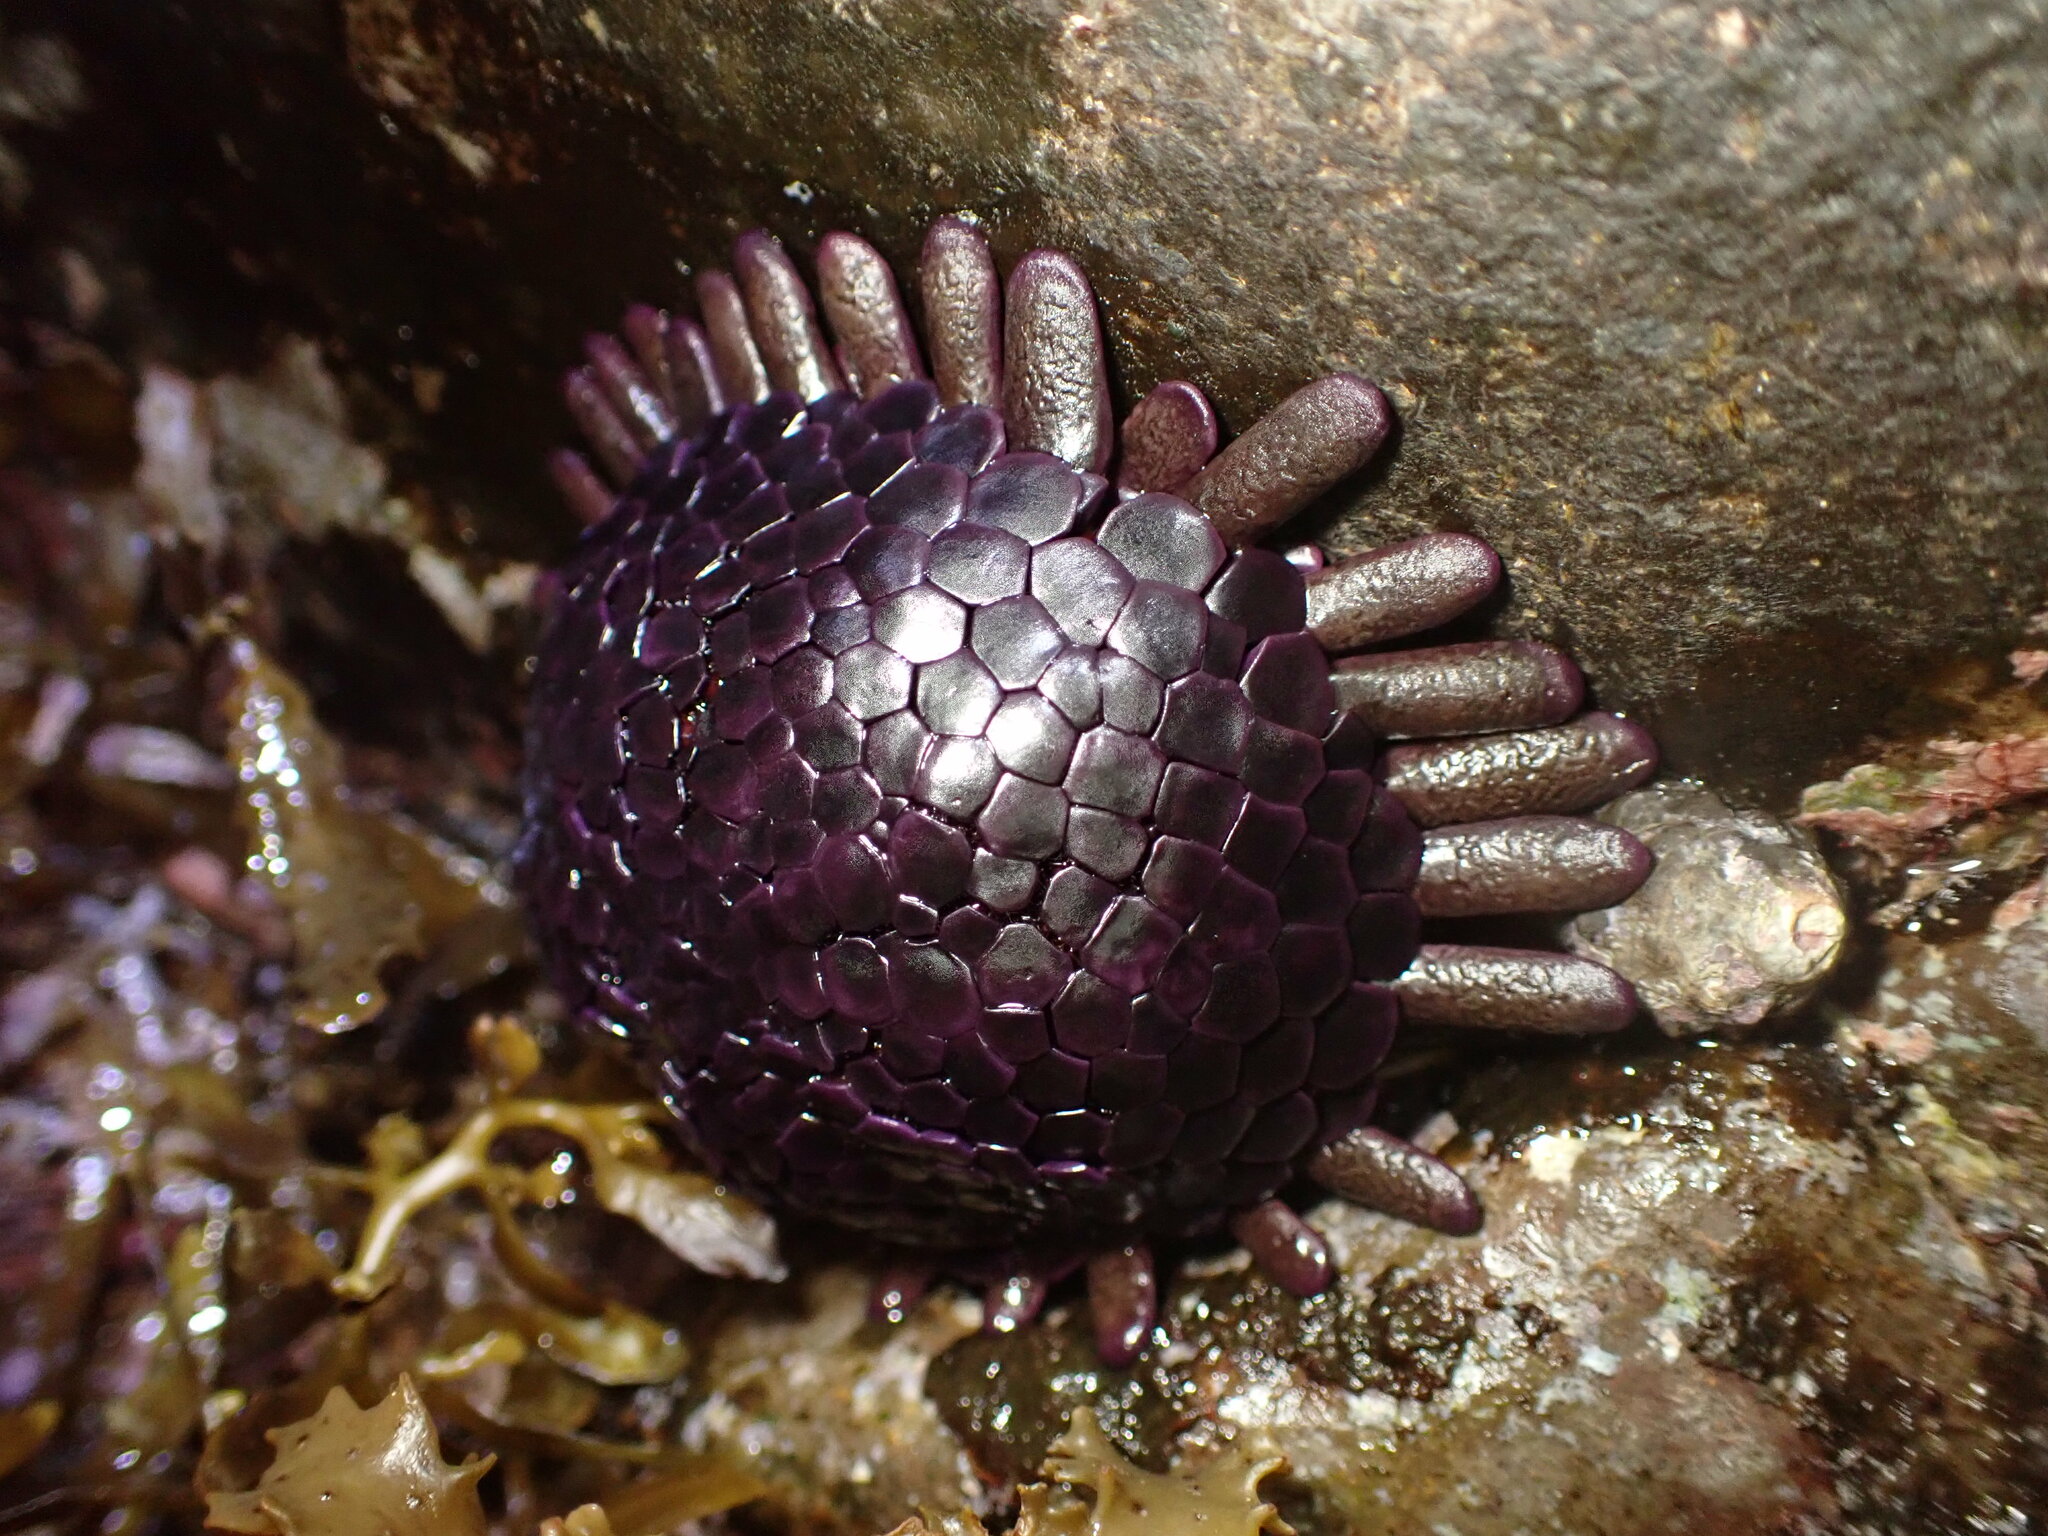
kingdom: Animalia
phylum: Echinodermata
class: Echinoidea
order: Camarodonta
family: Echinometridae
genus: Colobocentrotus
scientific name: Colobocentrotus atratus
